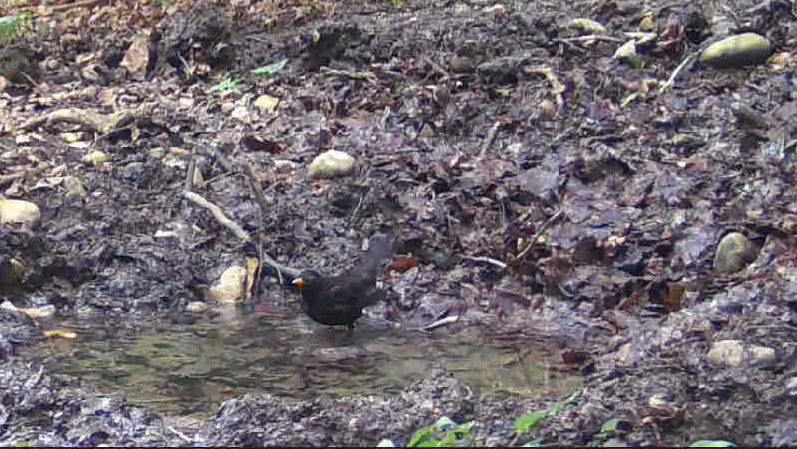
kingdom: Animalia
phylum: Chordata
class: Aves
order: Passeriformes
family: Turdidae
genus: Turdus
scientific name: Turdus merula
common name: Common blackbird
